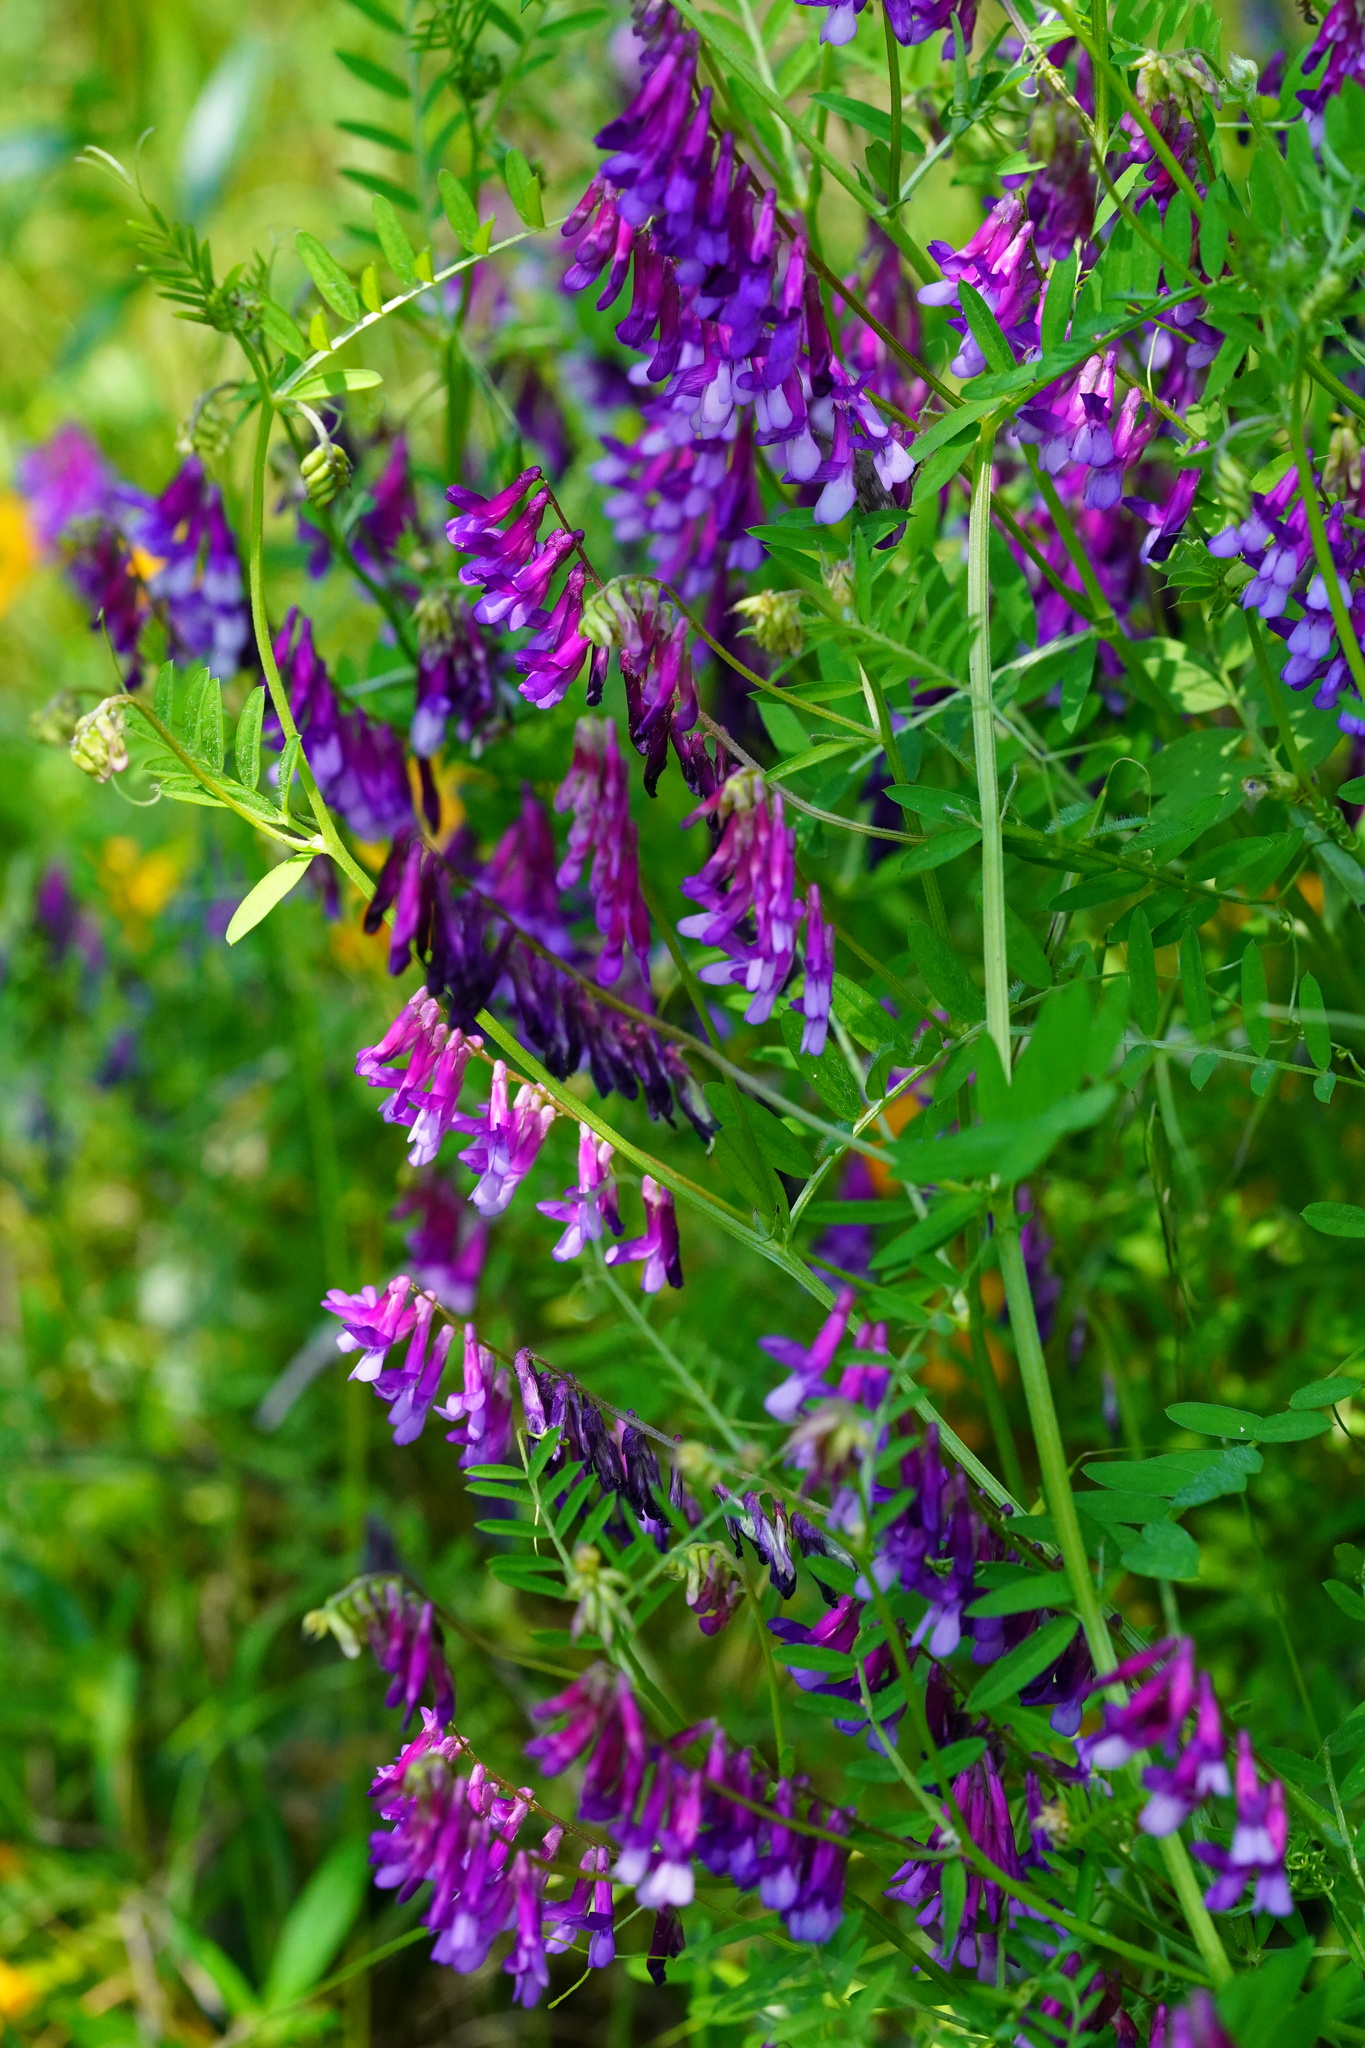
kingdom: Plantae
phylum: Tracheophyta
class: Magnoliopsida
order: Fabales
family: Fabaceae
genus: Vicia
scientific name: Vicia villosa
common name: Fodder vetch
